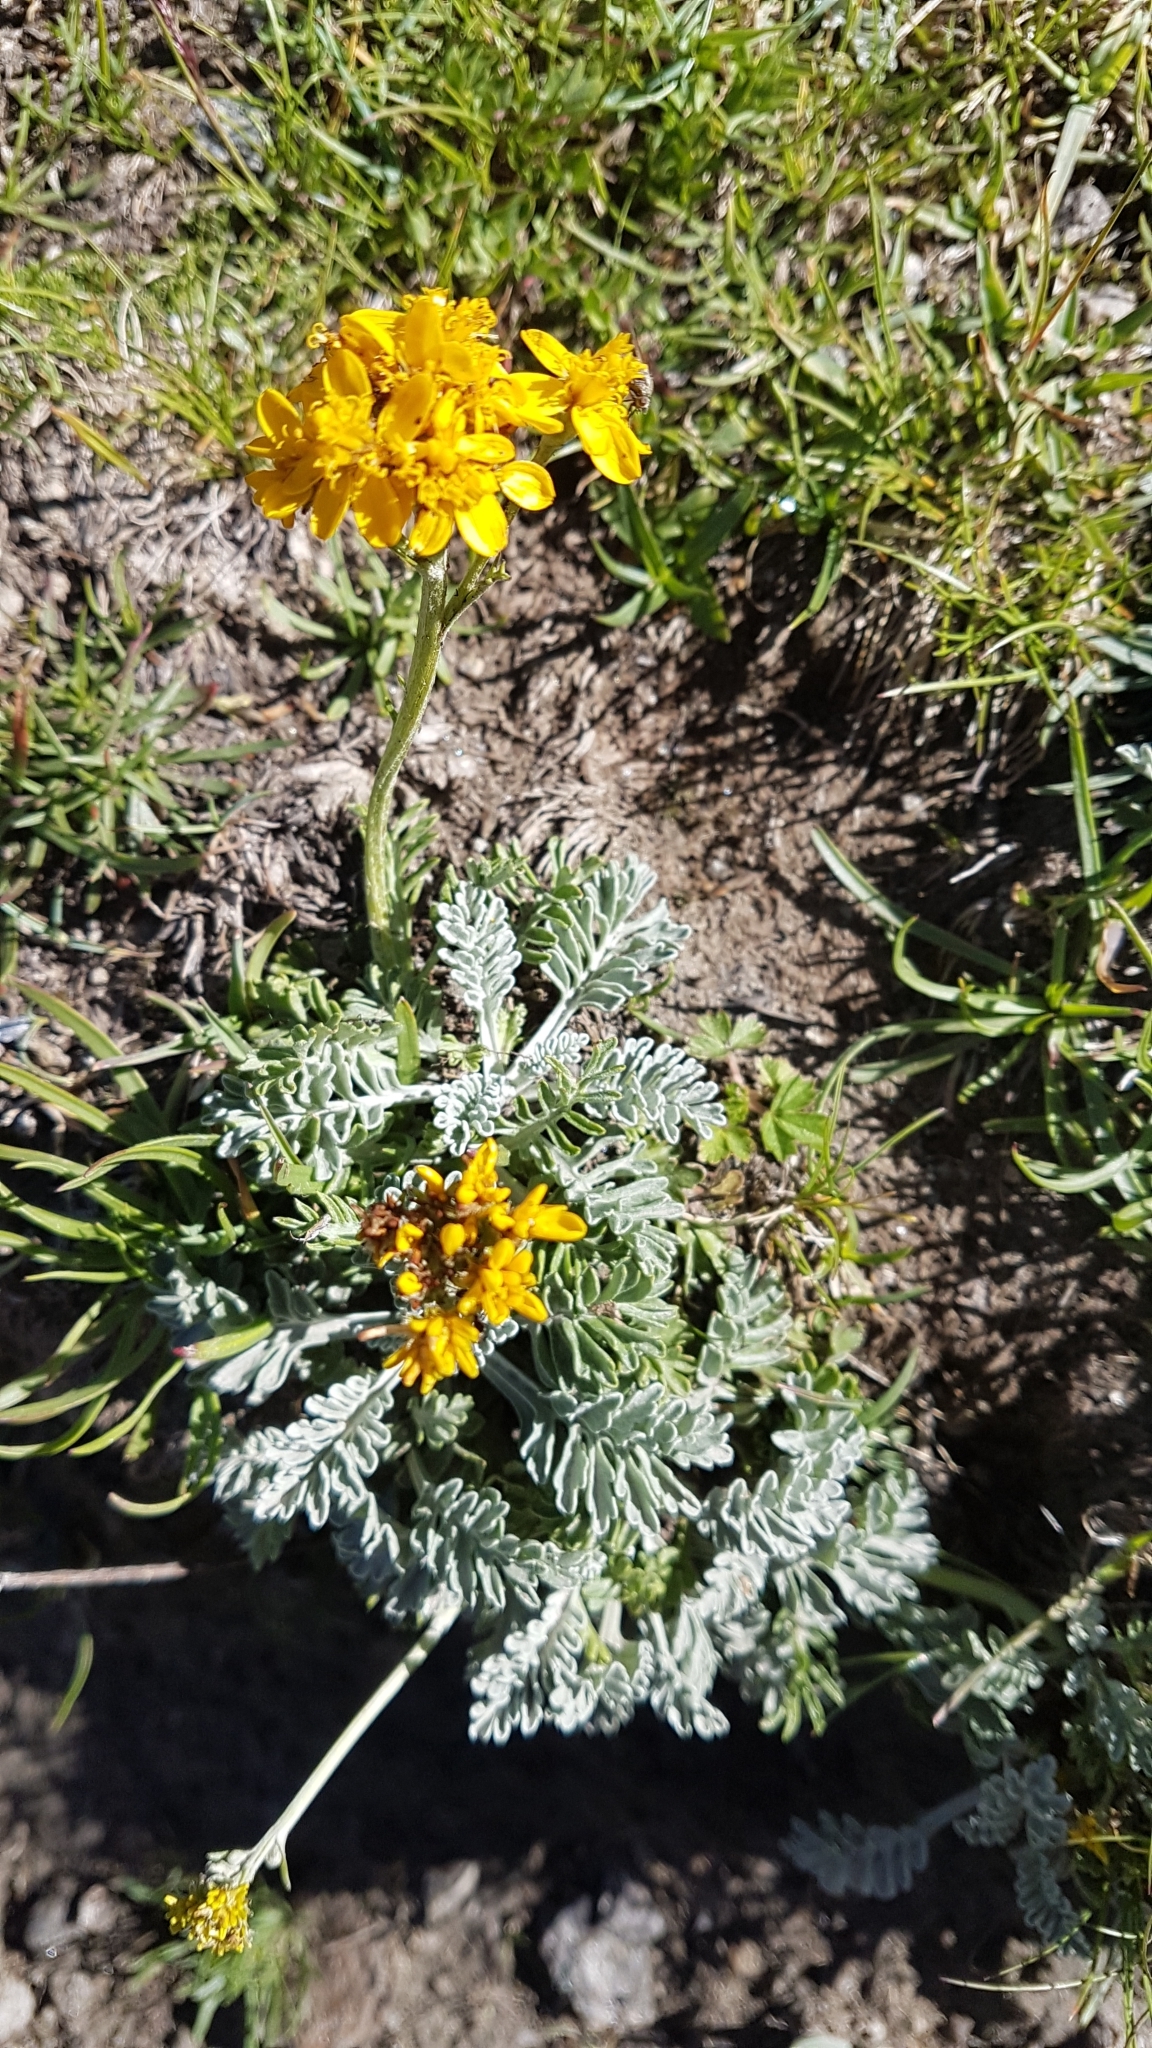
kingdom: Plantae
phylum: Tracheophyta
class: Magnoliopsida
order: Asterales
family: Asteraceae
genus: Jacobaea
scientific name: Jacobaea incana
